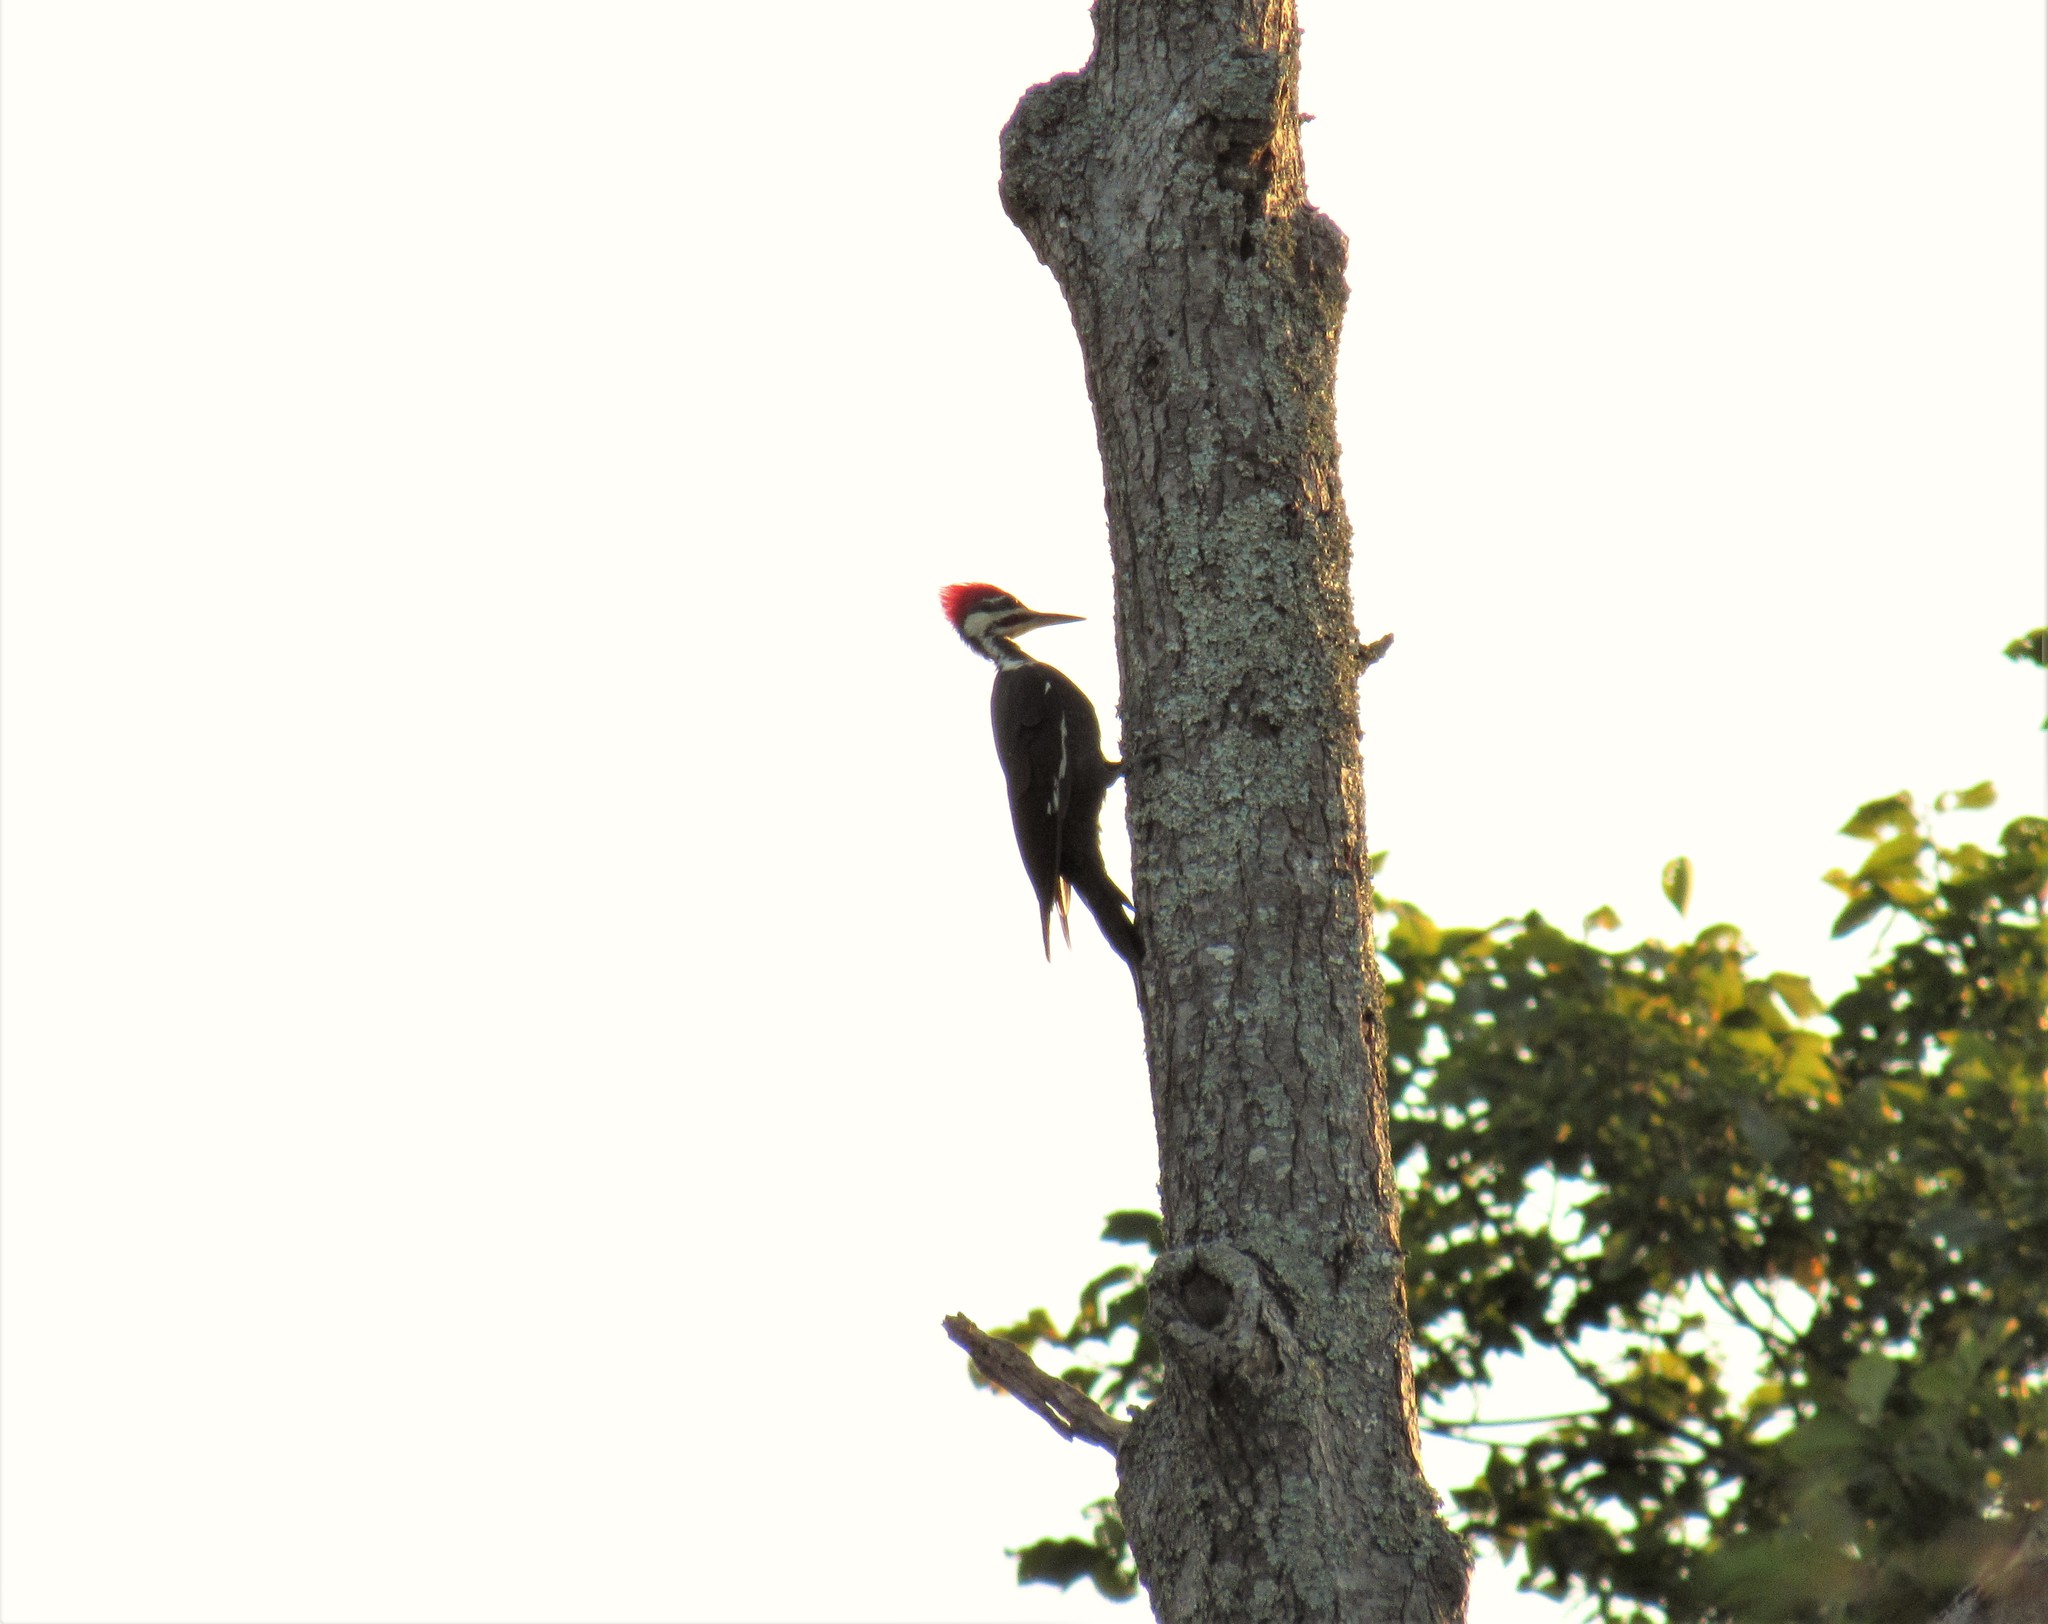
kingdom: Animalia
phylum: Chordata
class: Aves
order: Piciformes
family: Picidae
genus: Dryocopus
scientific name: Dryocopus pileatus
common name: Pileated woodpecker
